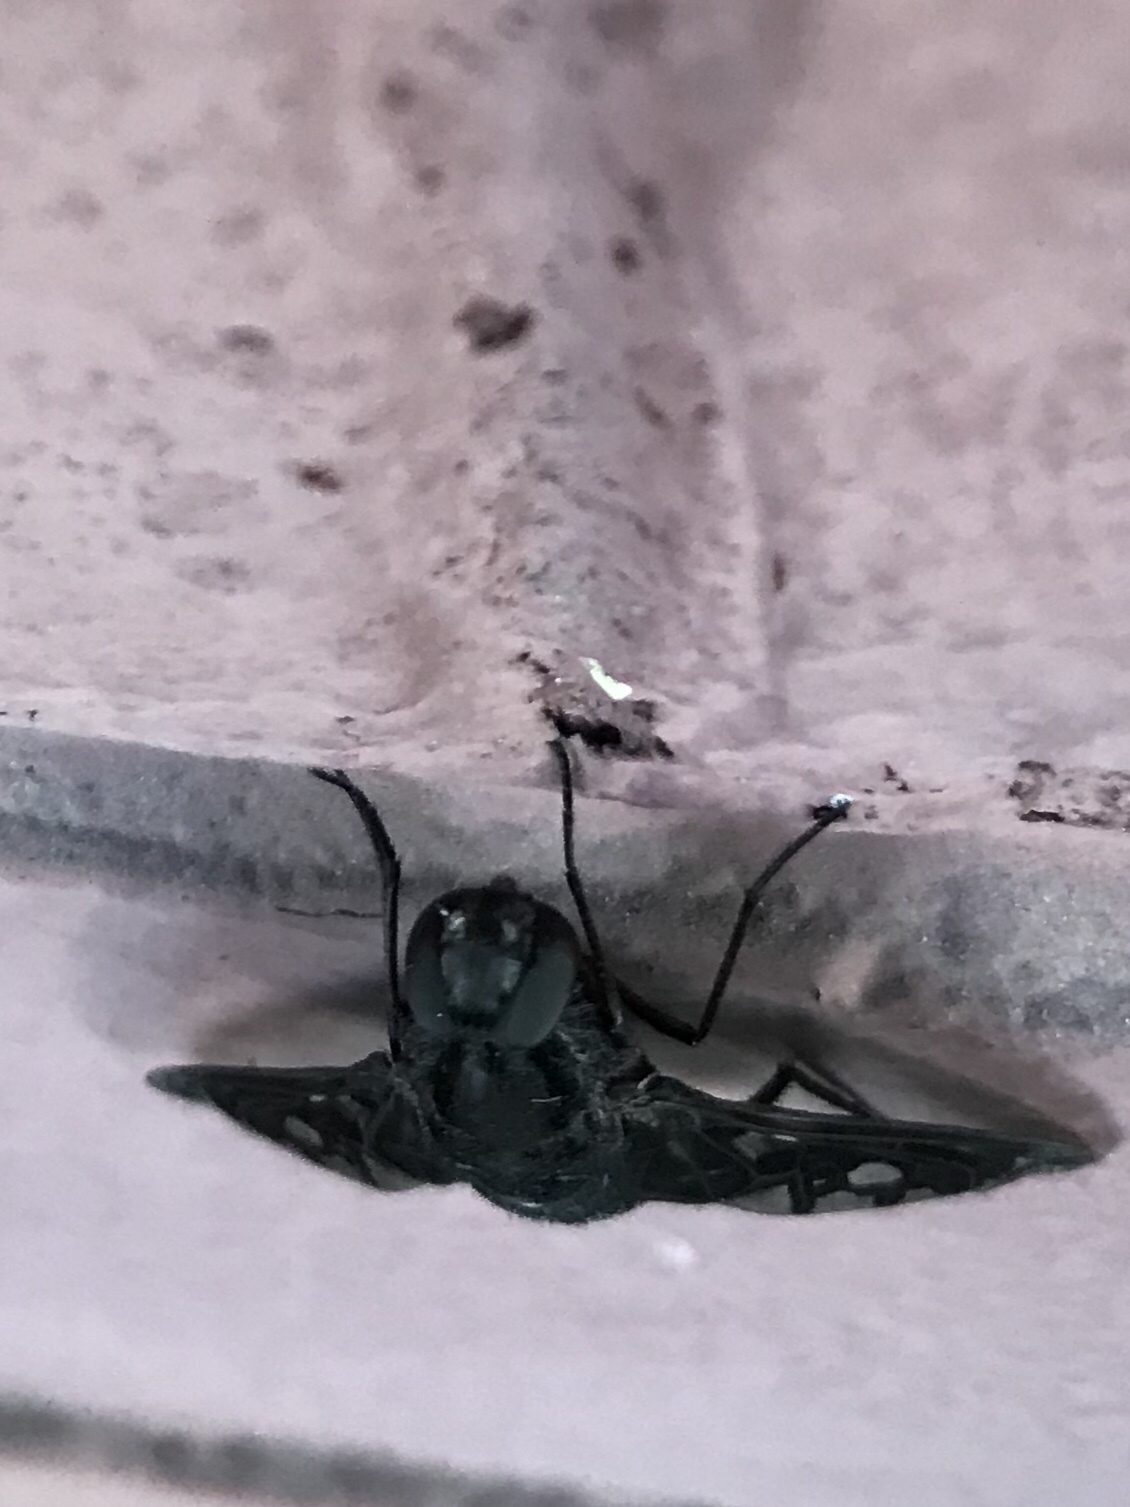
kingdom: Animalia
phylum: Arthropoda
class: Insecta
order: Diptera
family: Bombyliidae
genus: Xenox
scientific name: Xenox tigrinus
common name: Tiger bee fly
